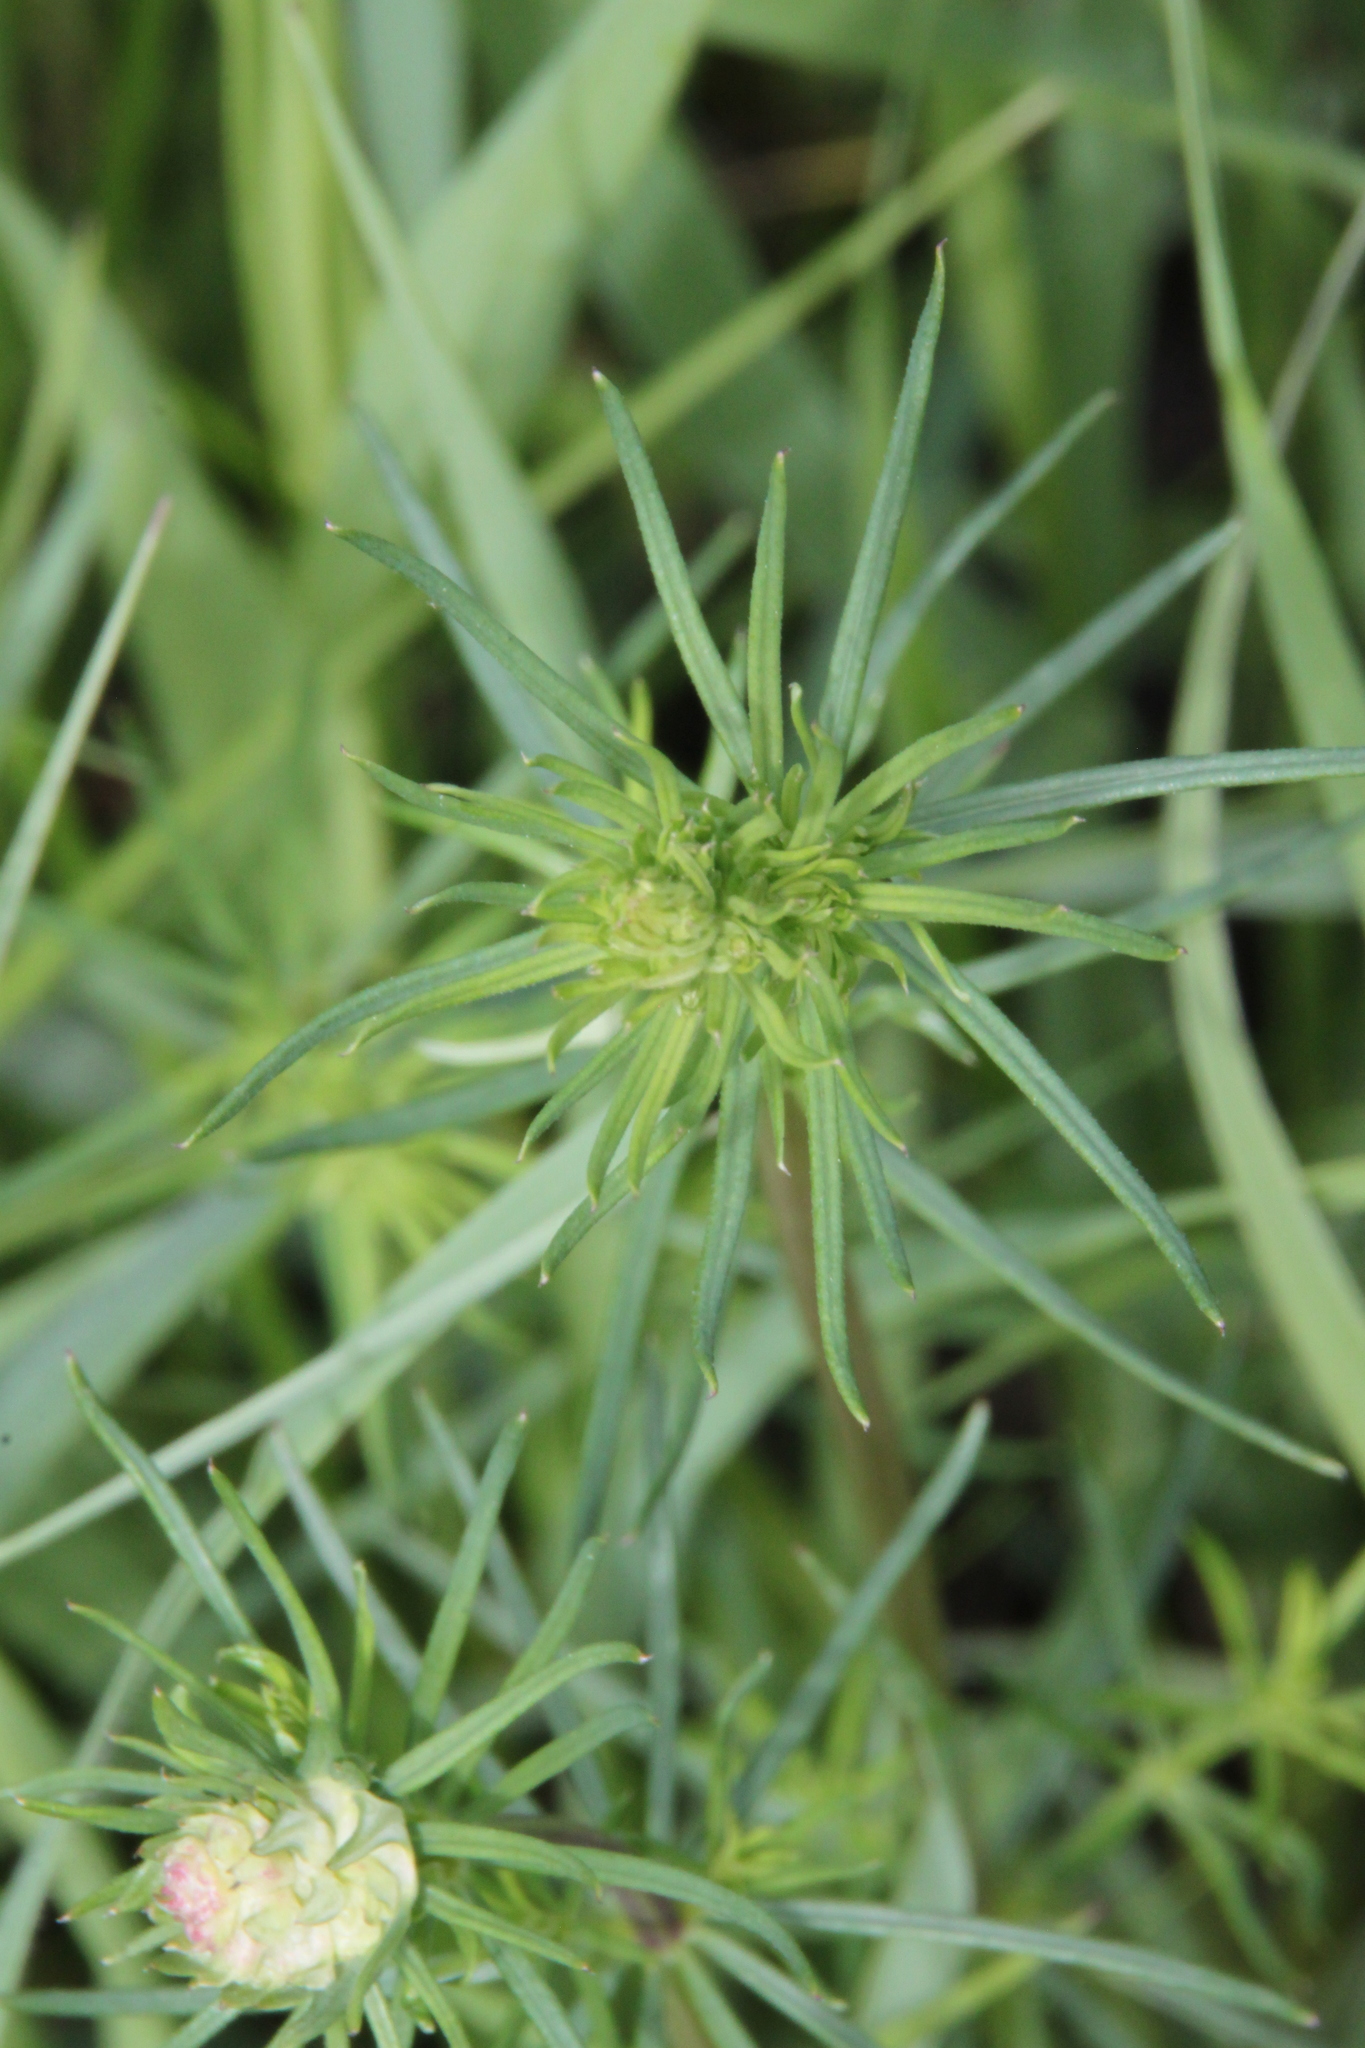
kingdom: Plantae
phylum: Tracheophyta
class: Magnoliopsida
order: Gentianales
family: Rubiaceae
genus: Galium
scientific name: Galium verum
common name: Lady's bedstraw
